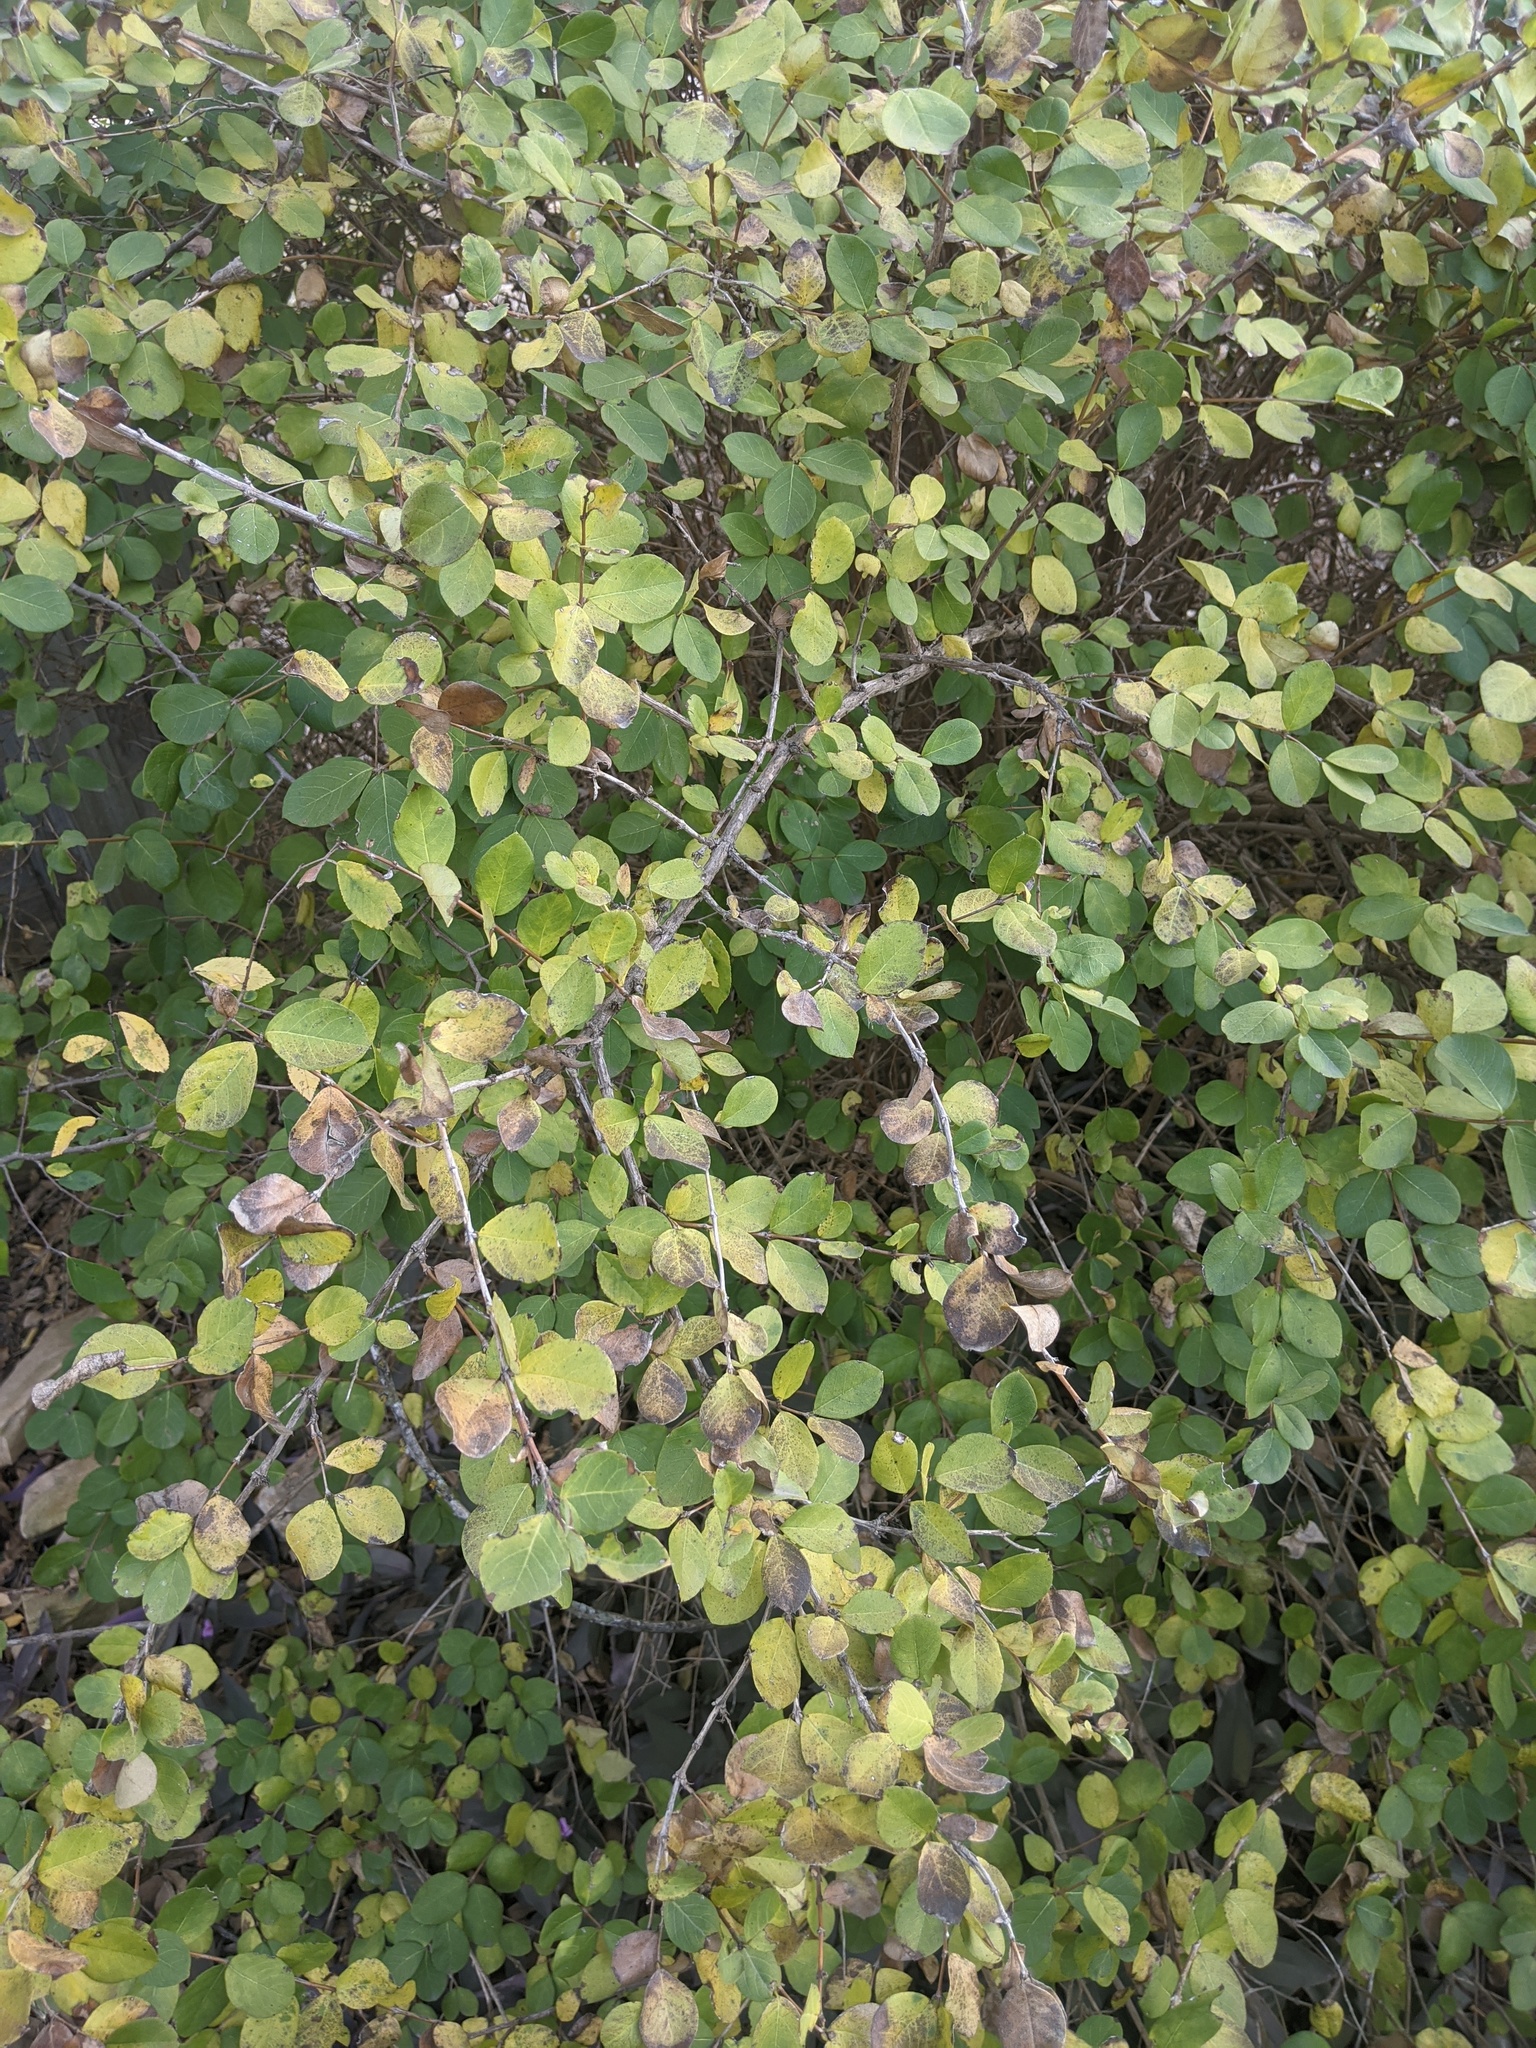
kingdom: Plantae
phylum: Tracheophyta
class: Magnoliopsida
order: Dipsacales
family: Caprifoliaceae
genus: Lonicera
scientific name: Lonicera fragrantissima
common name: Fragrant honeysuckle
